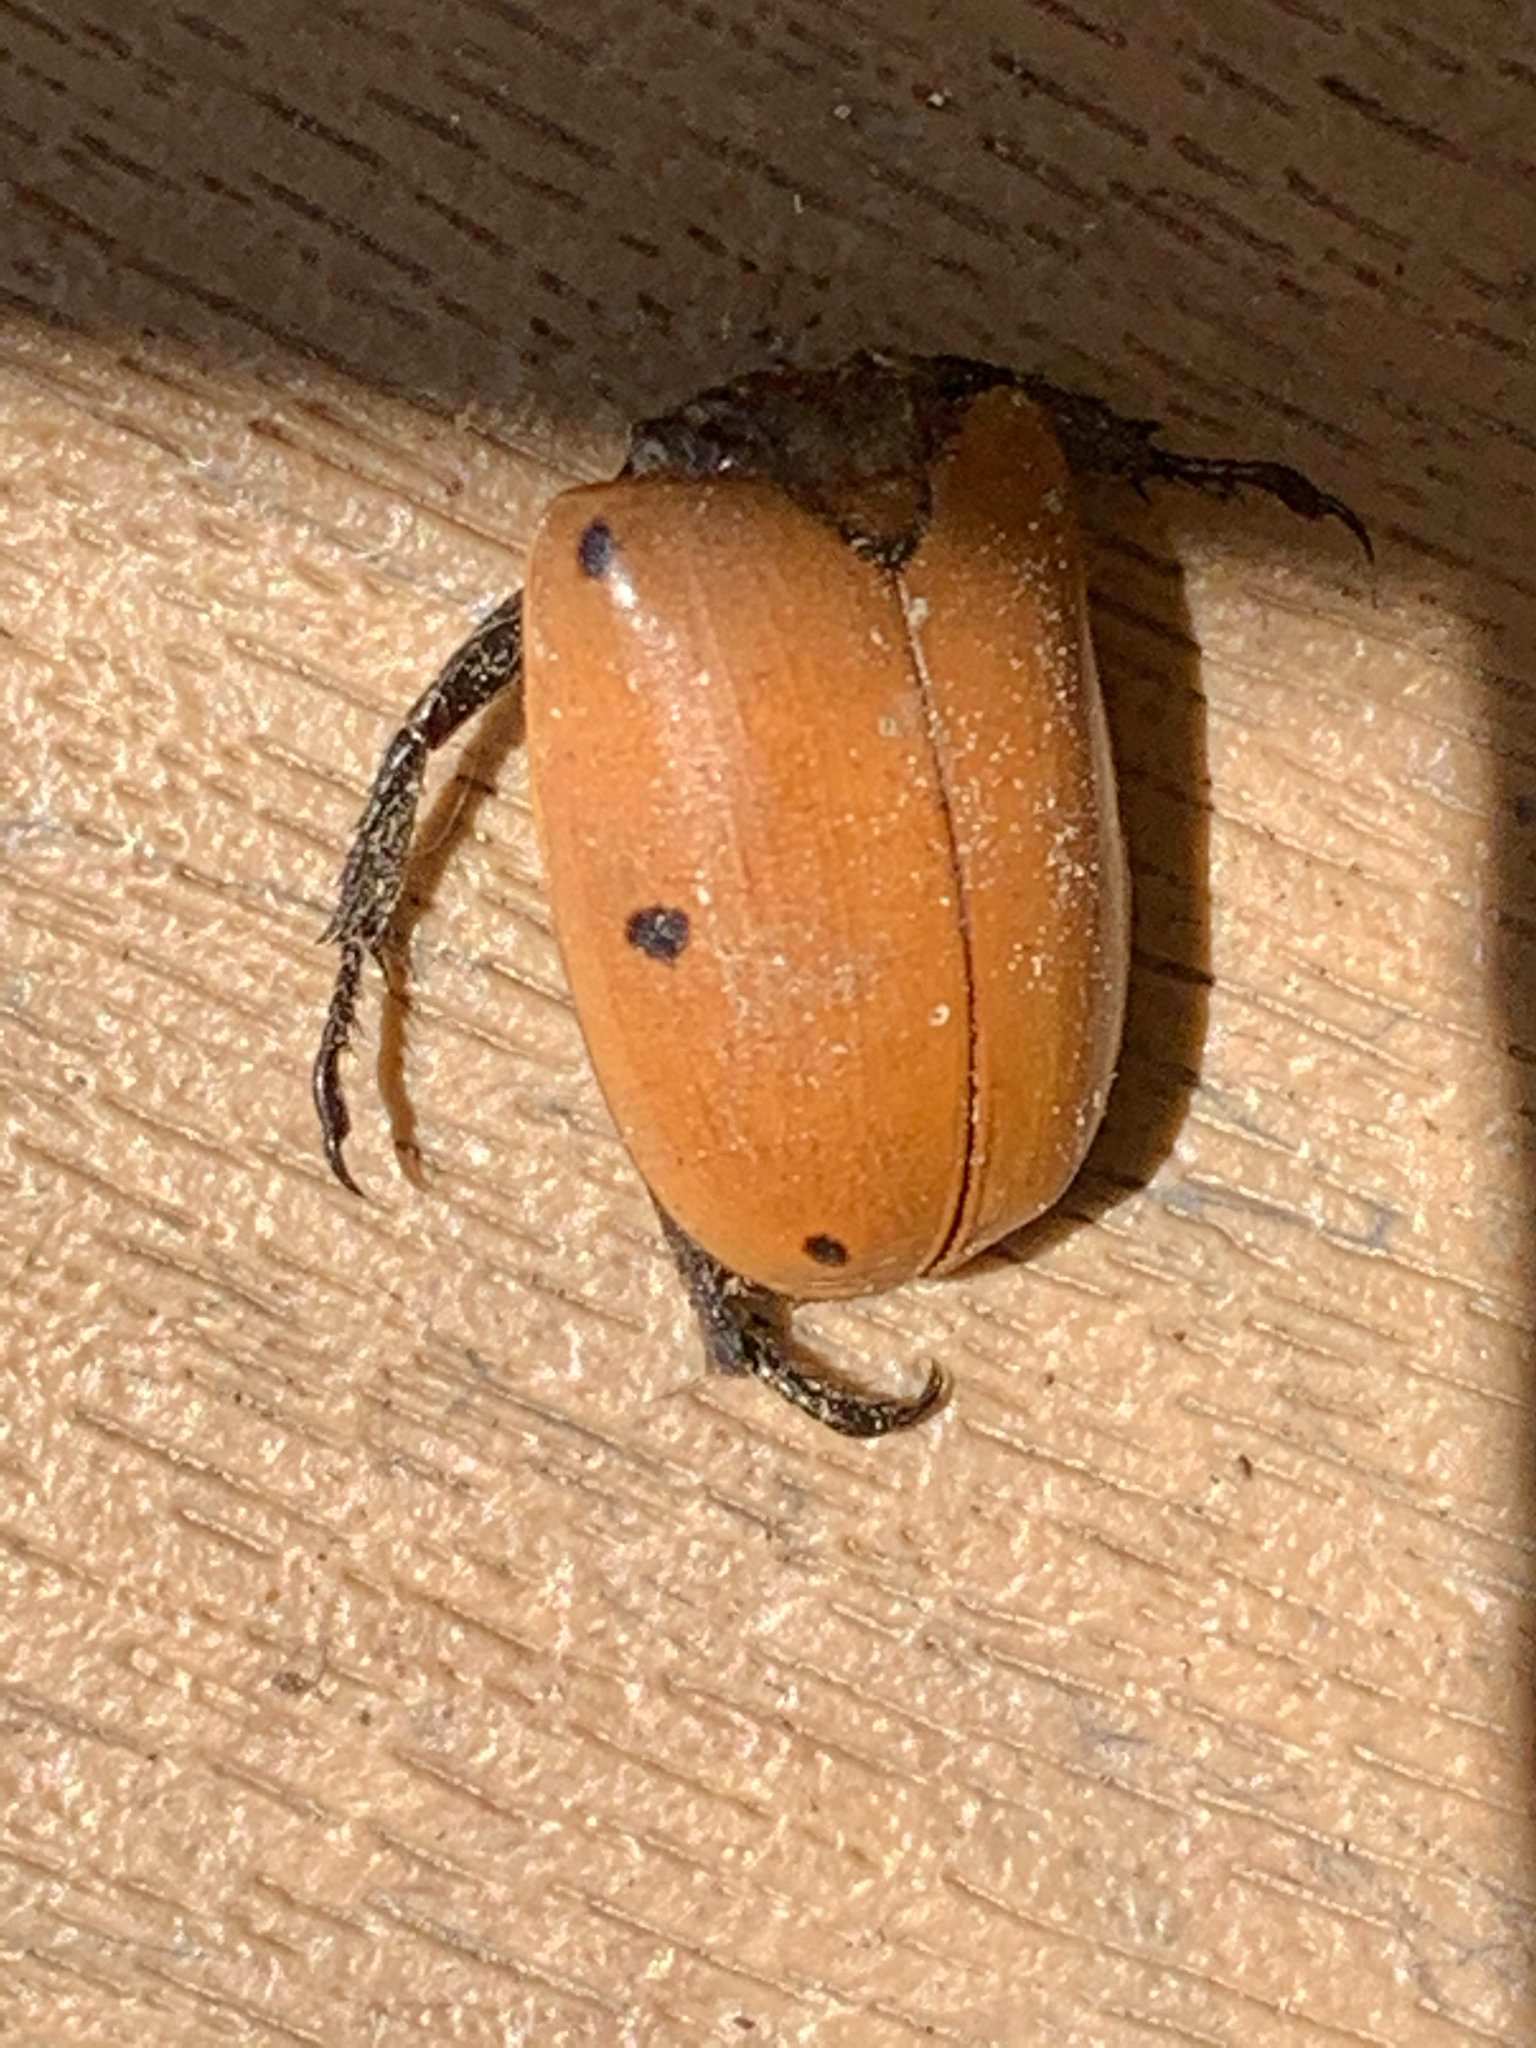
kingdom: Animalia
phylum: Arthropoda
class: Insecta
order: Coleoptera
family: Scarabaeidae
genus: Pelidnota
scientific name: Pelidnota punctata
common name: Grapevine beetle
